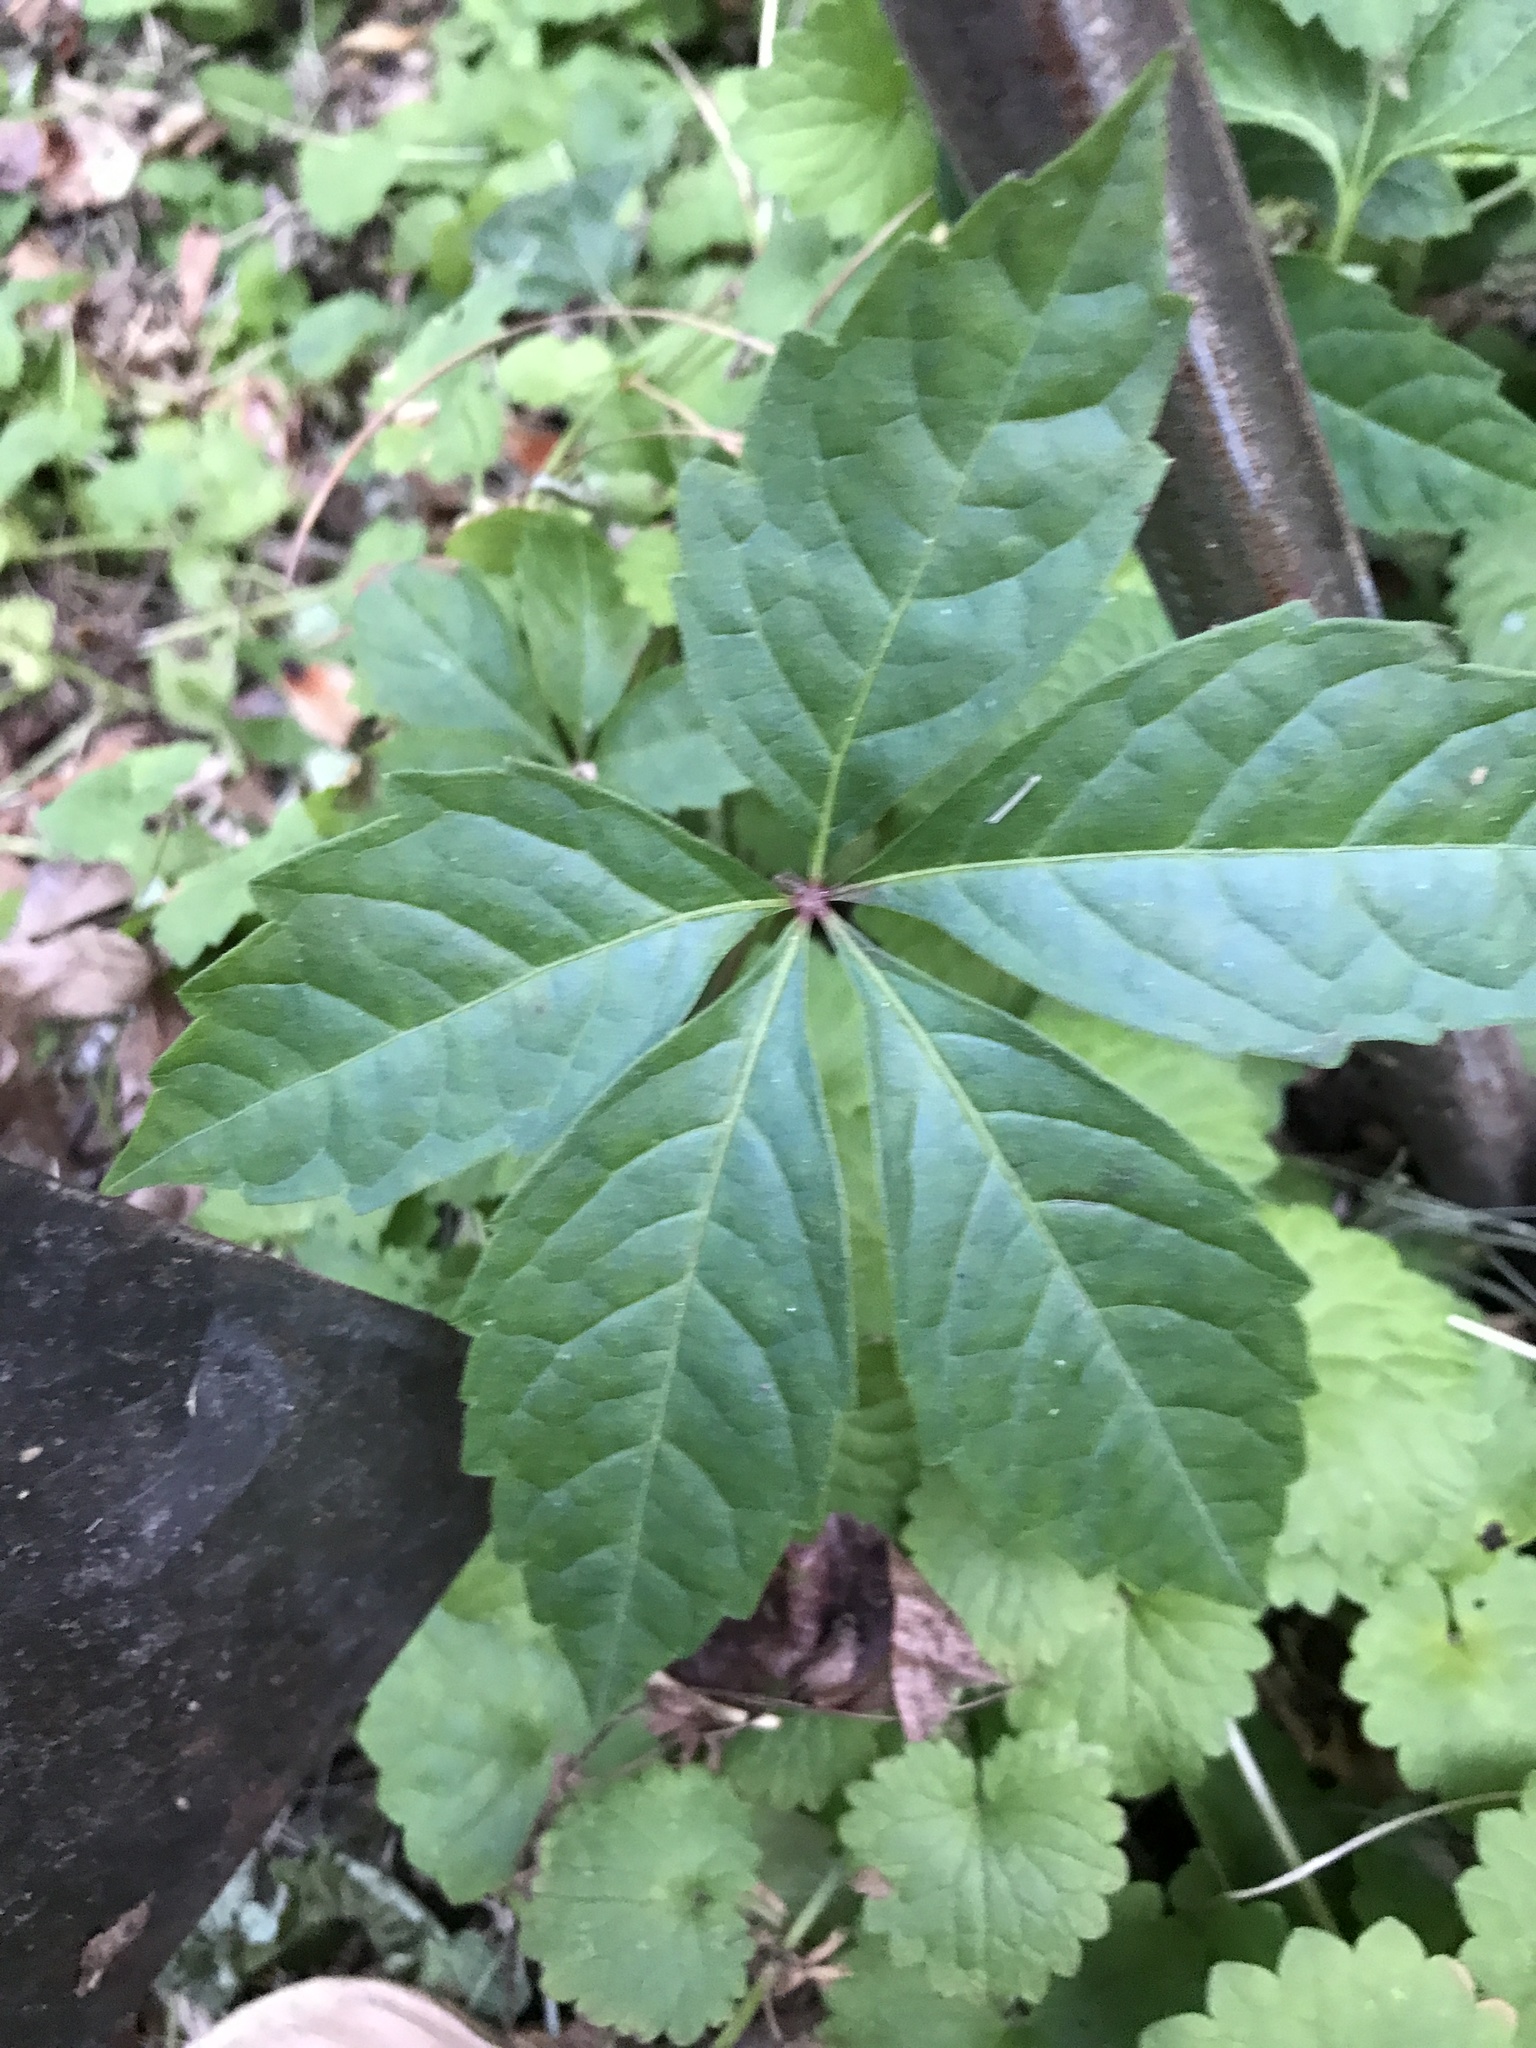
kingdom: Plantae
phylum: Tracheophyta
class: Magnoliopsida
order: Vitales
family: Vitaceae
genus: Parthenocissus
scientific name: Parthenocissus quinquefolia
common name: Virginia-creeper
